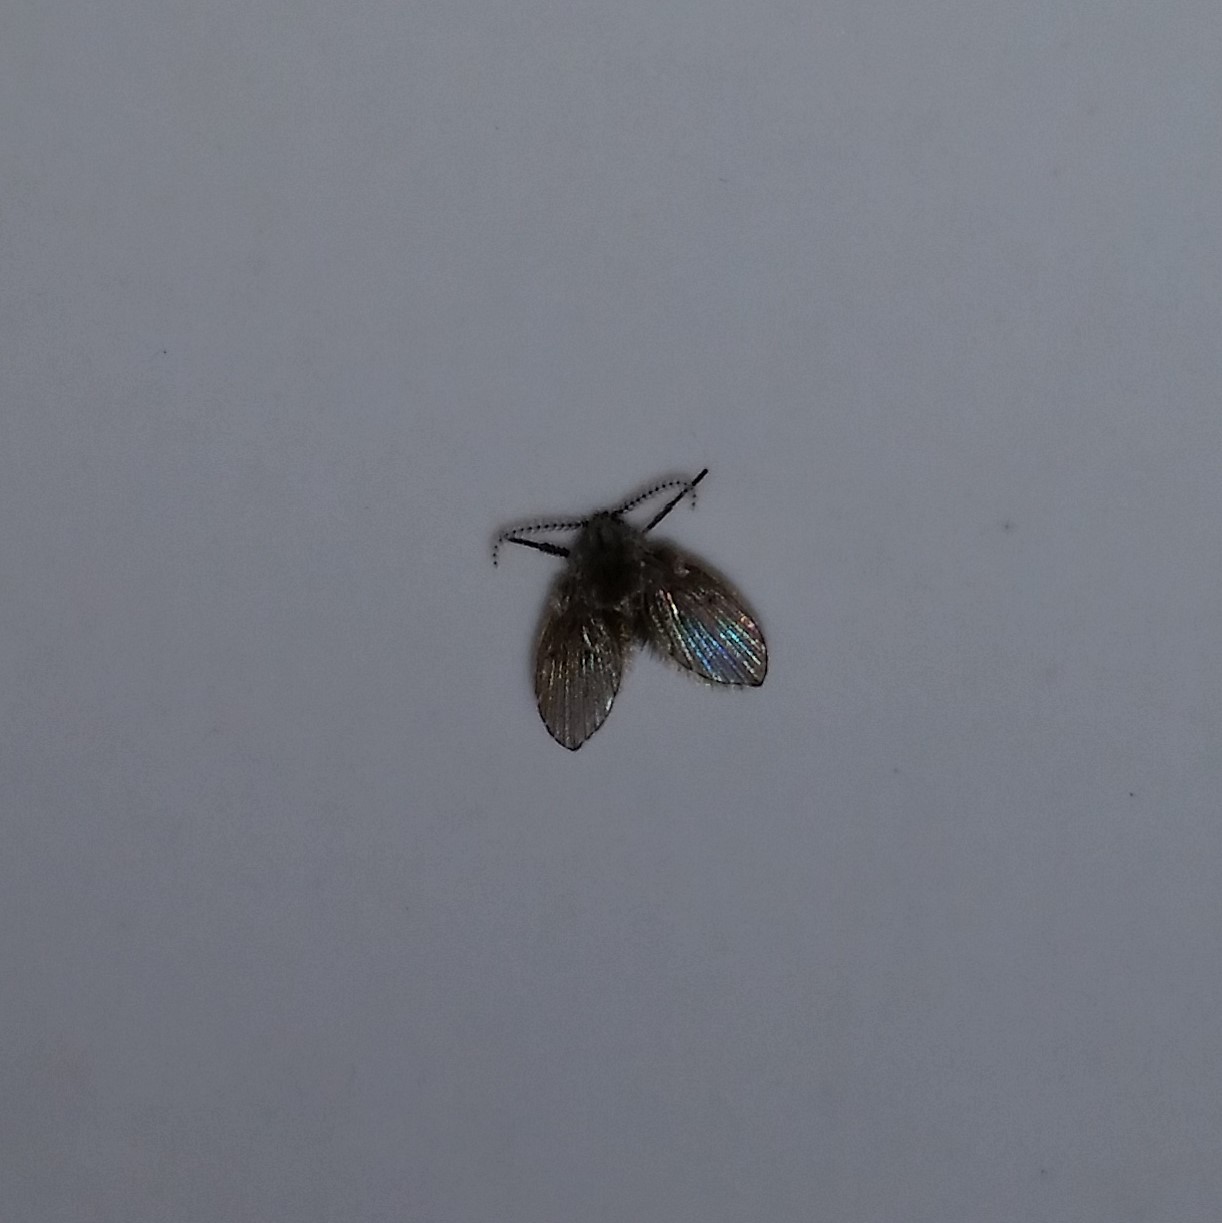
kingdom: Animalia
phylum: Arthropoda
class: Insecta
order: Diptera
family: Psychodidae
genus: Clogmia
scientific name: Clogmia albipunctatus
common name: White-spotted moth fly
